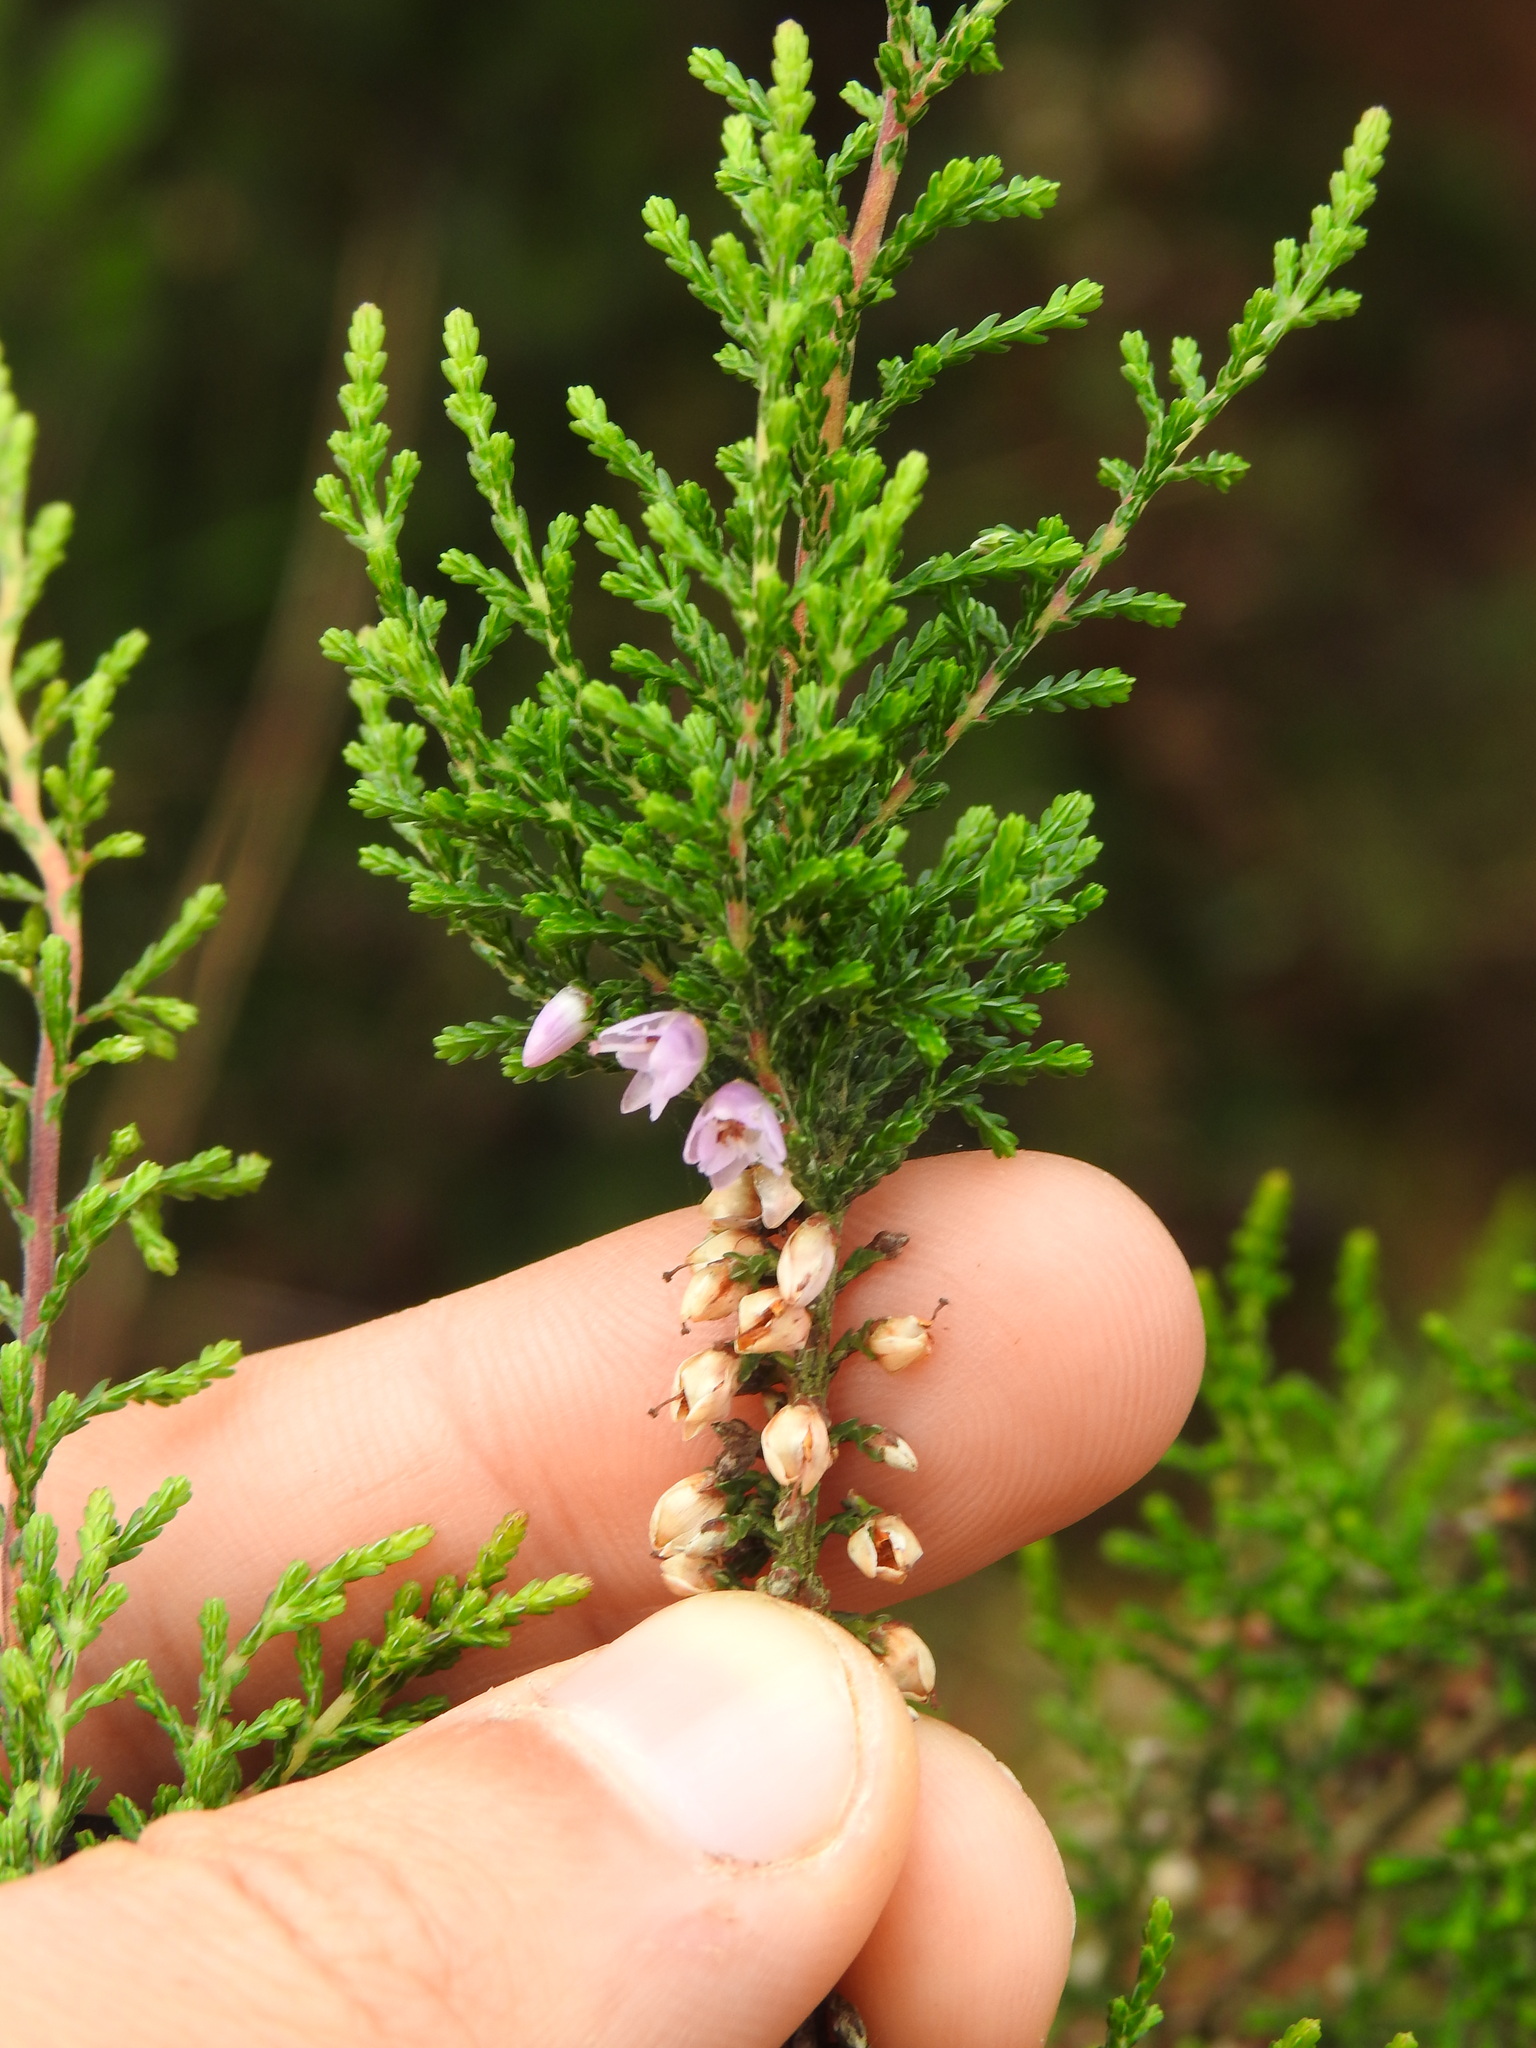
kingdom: Plantae
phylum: Tracheophyta
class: Magnoliopsida
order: Ericales
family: Ericaceae
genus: Calluna
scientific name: Calluna vulgaris
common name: Heather
